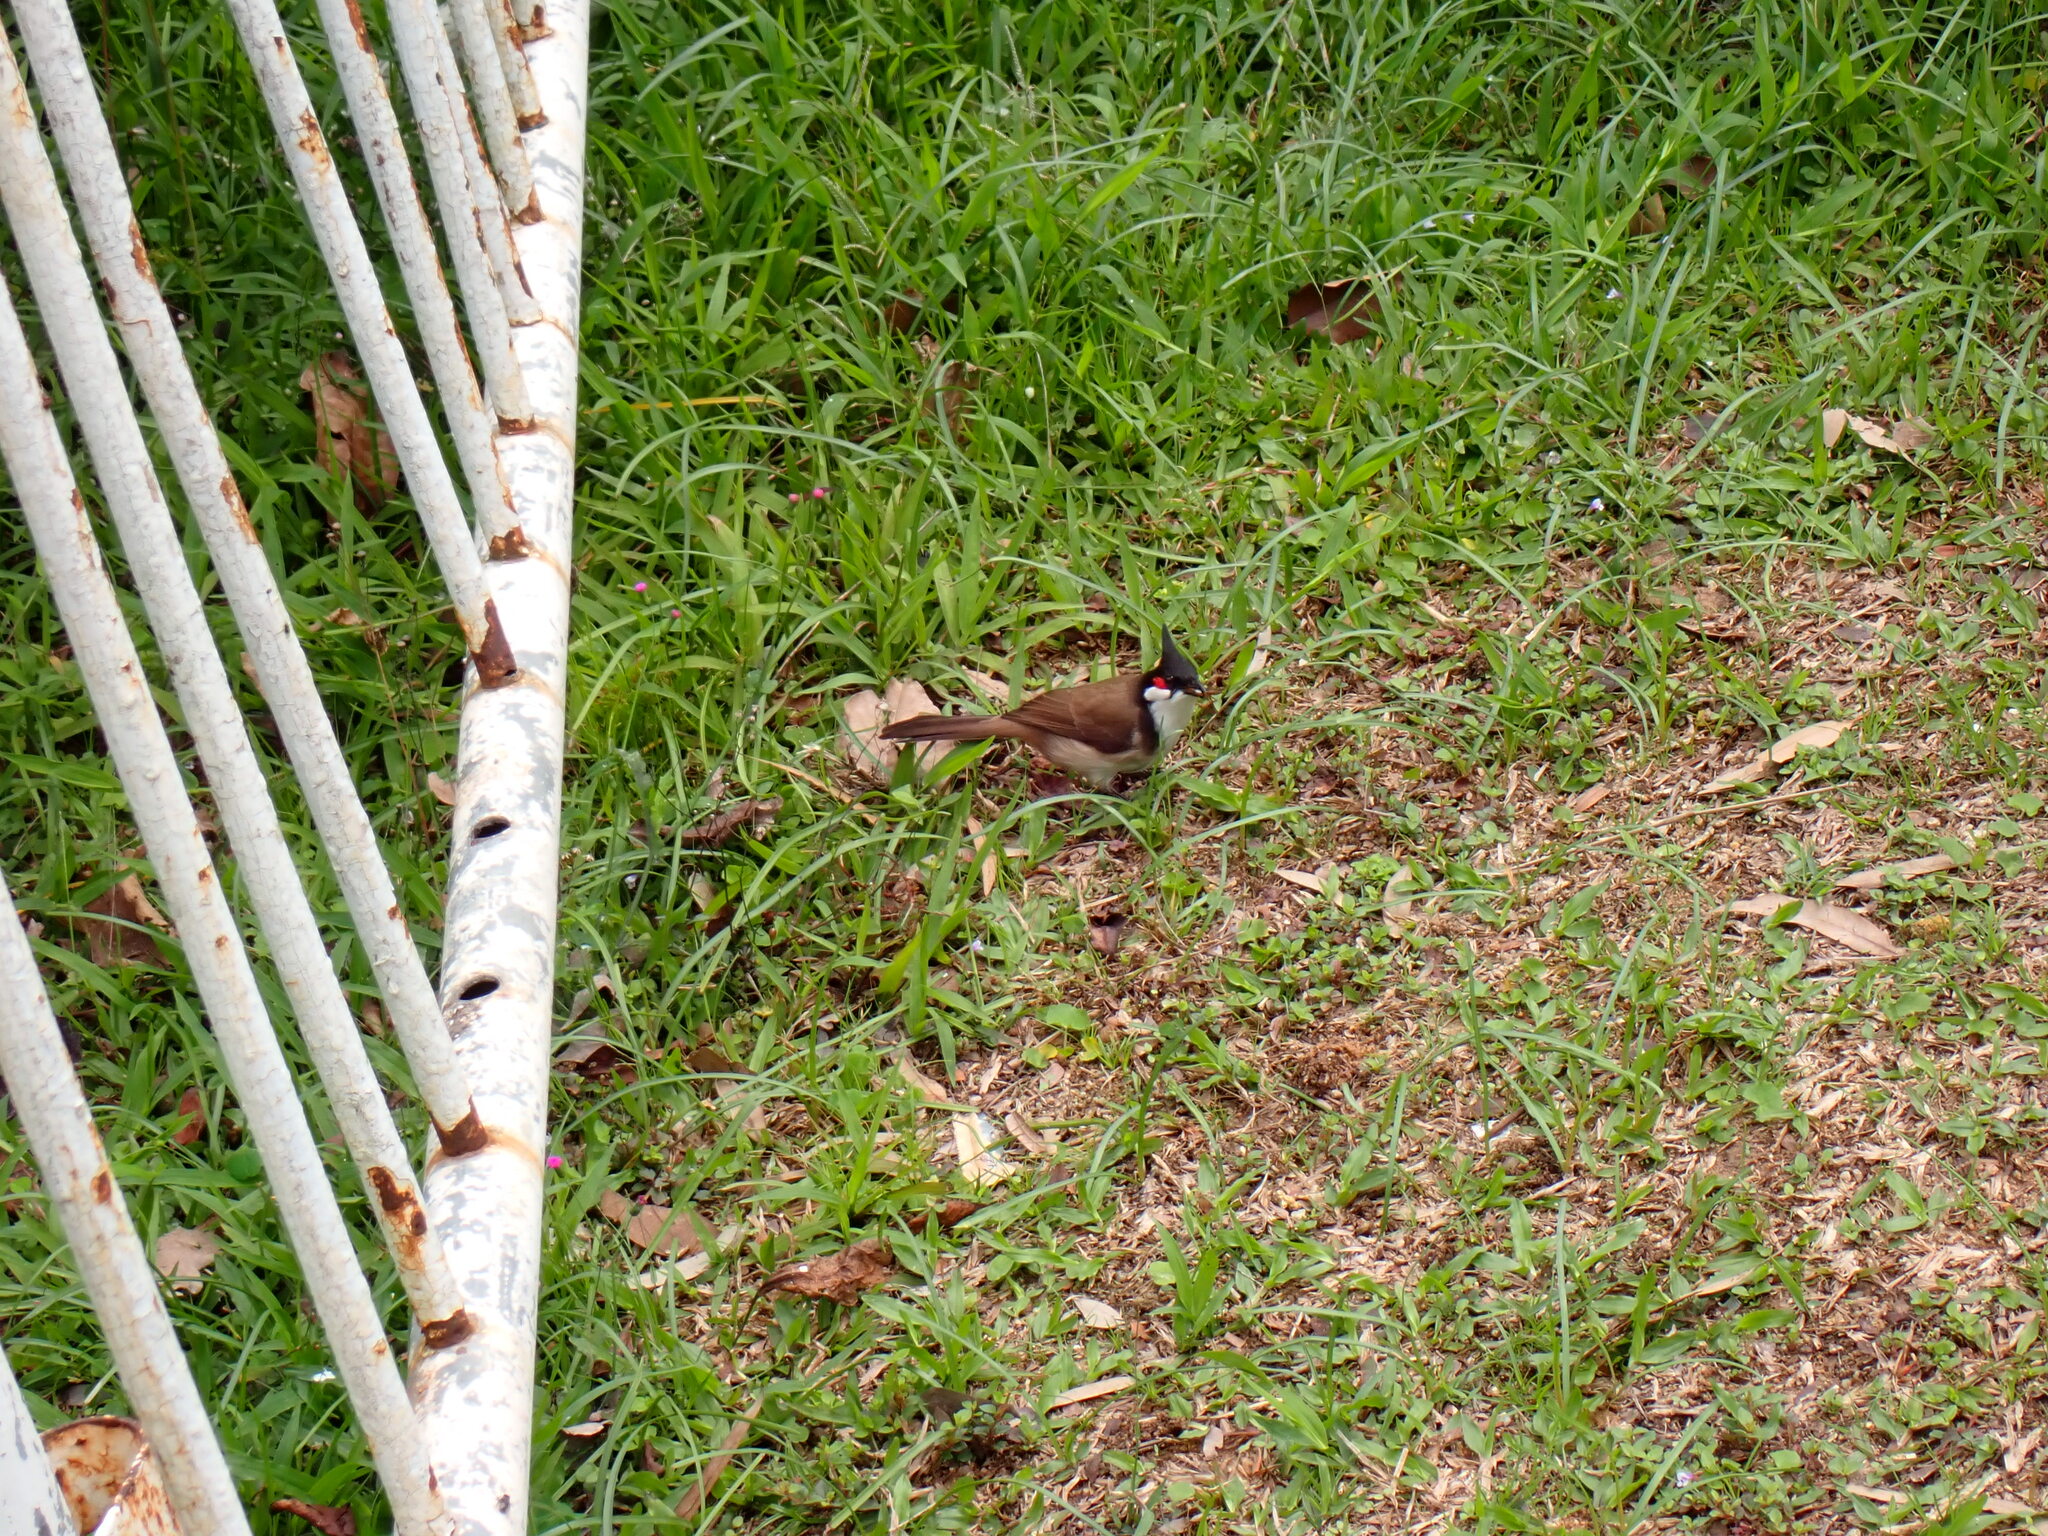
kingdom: Animalia
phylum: Chordata
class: Aves
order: Passeriformes
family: Pycnonotidae
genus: Pycnonotus
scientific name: Pycnonotus jocosus
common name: Red-whiskered bulbul
